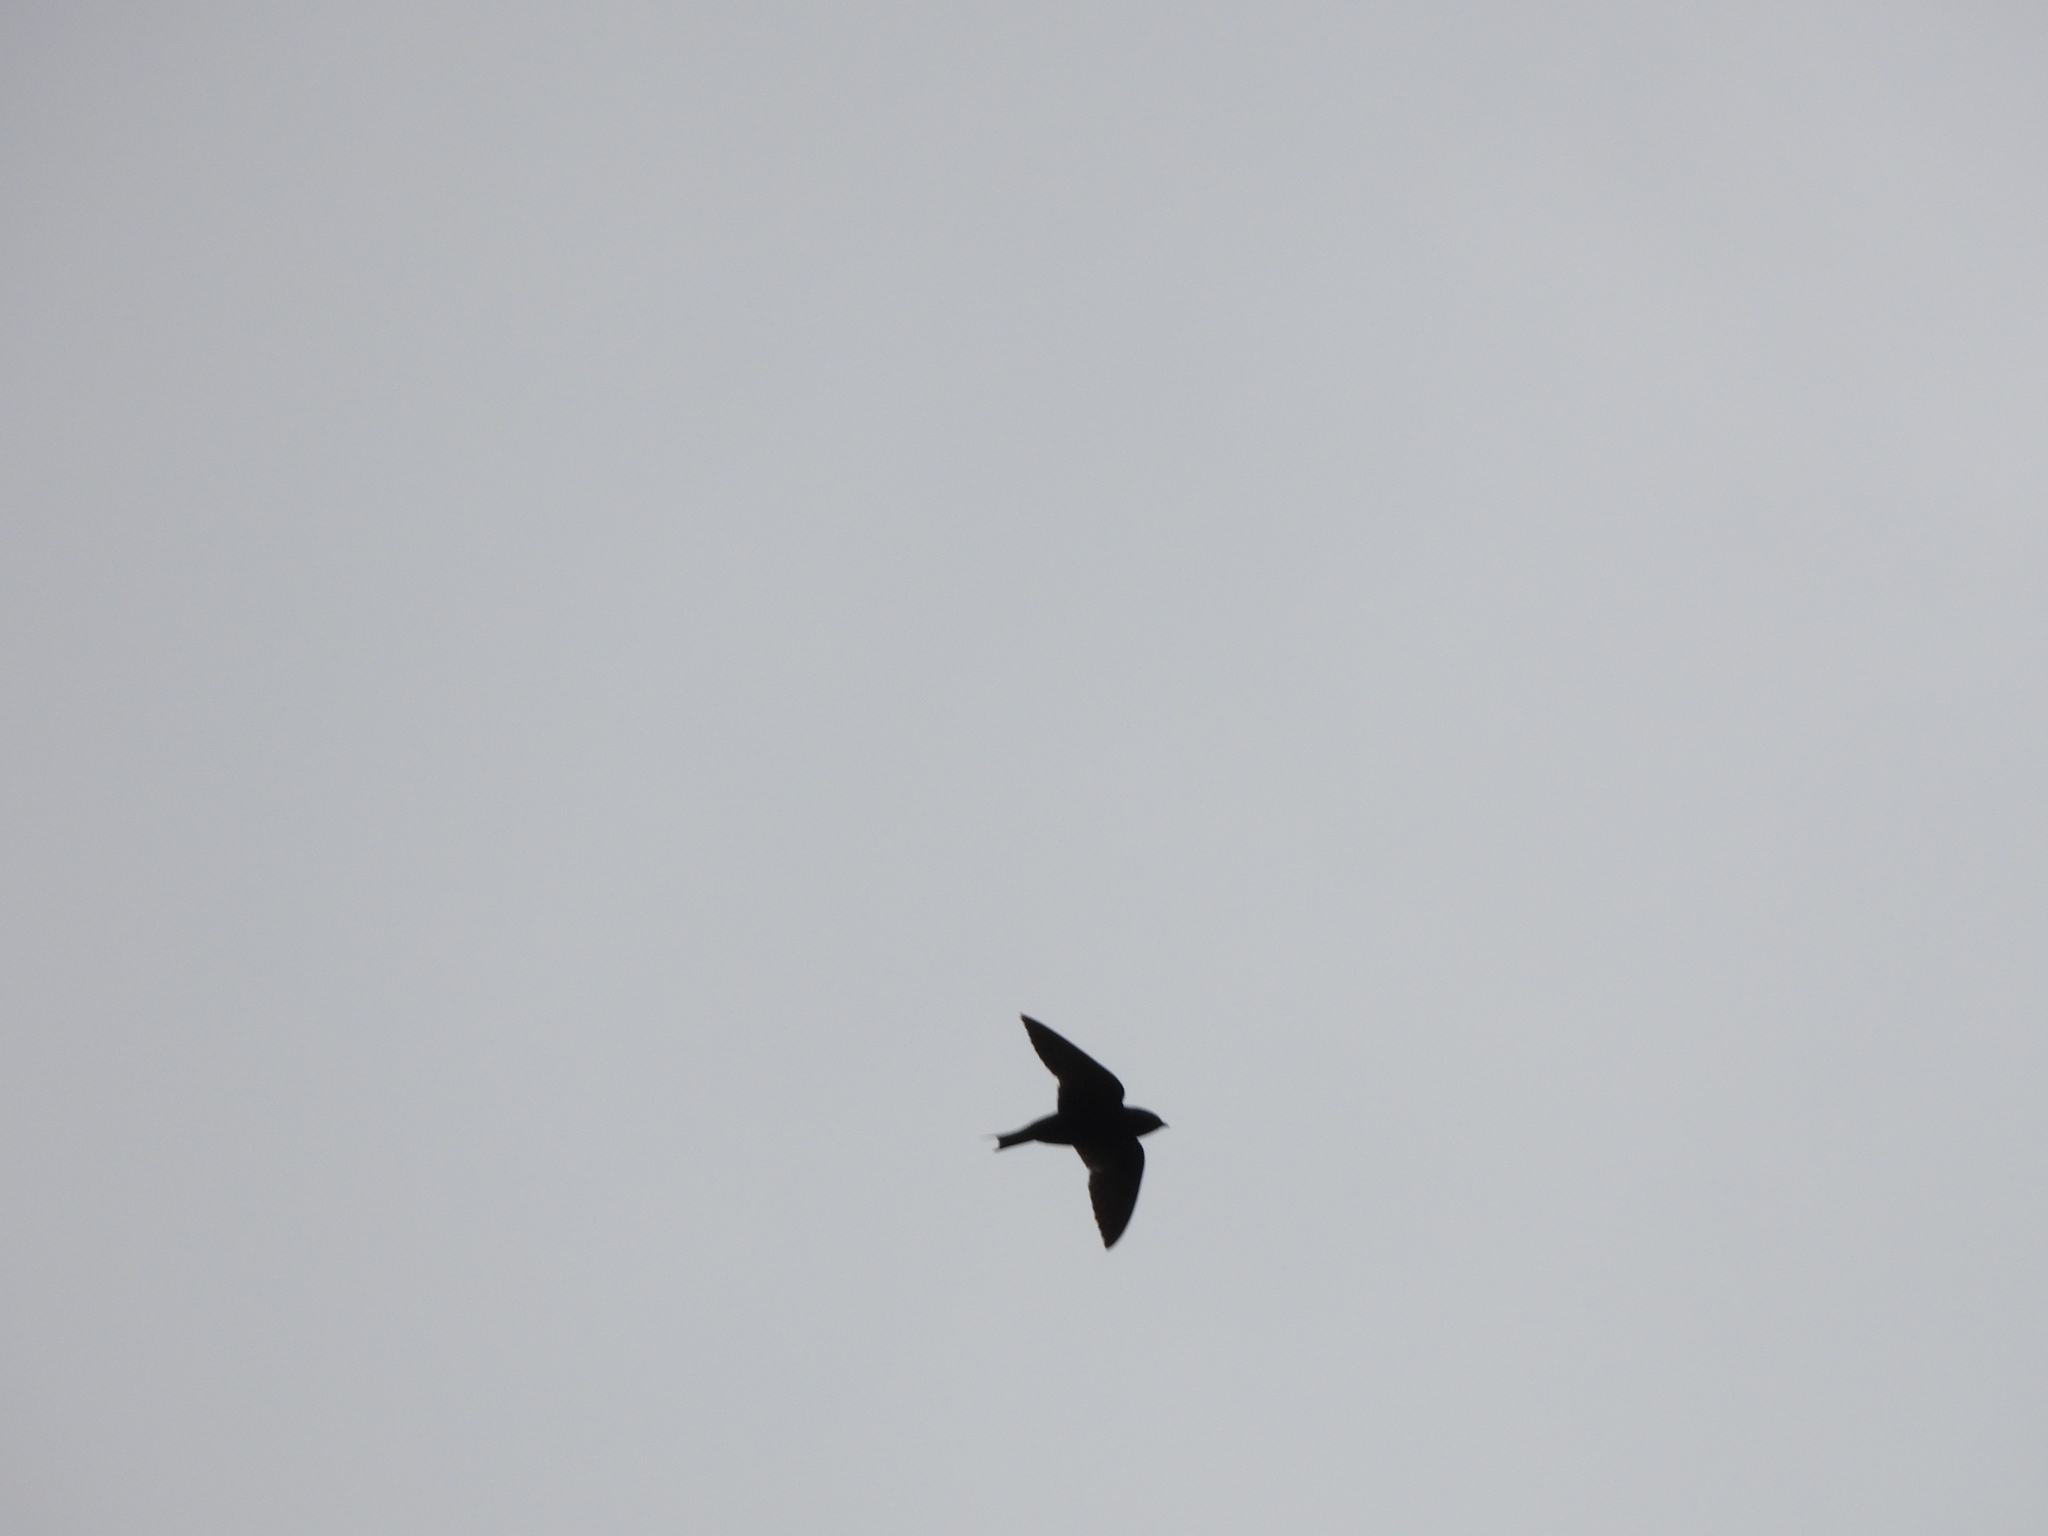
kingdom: Animalia
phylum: Chordata
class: Aves
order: Passeriformes
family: Hirundinidae
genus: Progne
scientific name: Progne subis
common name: Purple martin
